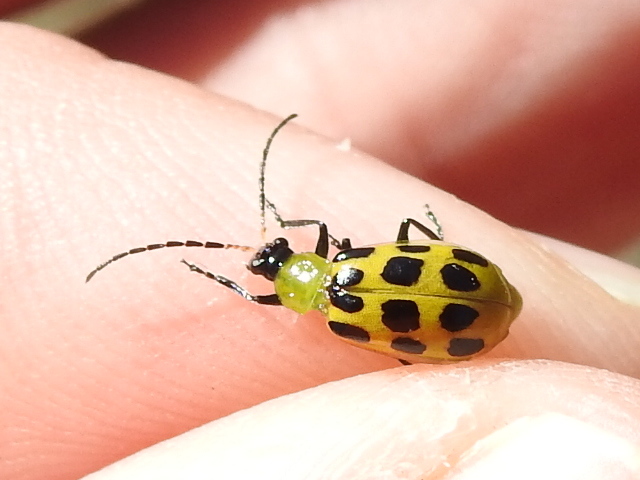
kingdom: Animalia
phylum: Arthropoda
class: Insecta
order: Coleoptera
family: Chrysomelidae
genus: Diabrotica
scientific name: Diabrotica undecimpunctata
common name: Spotted cucumber beetle
